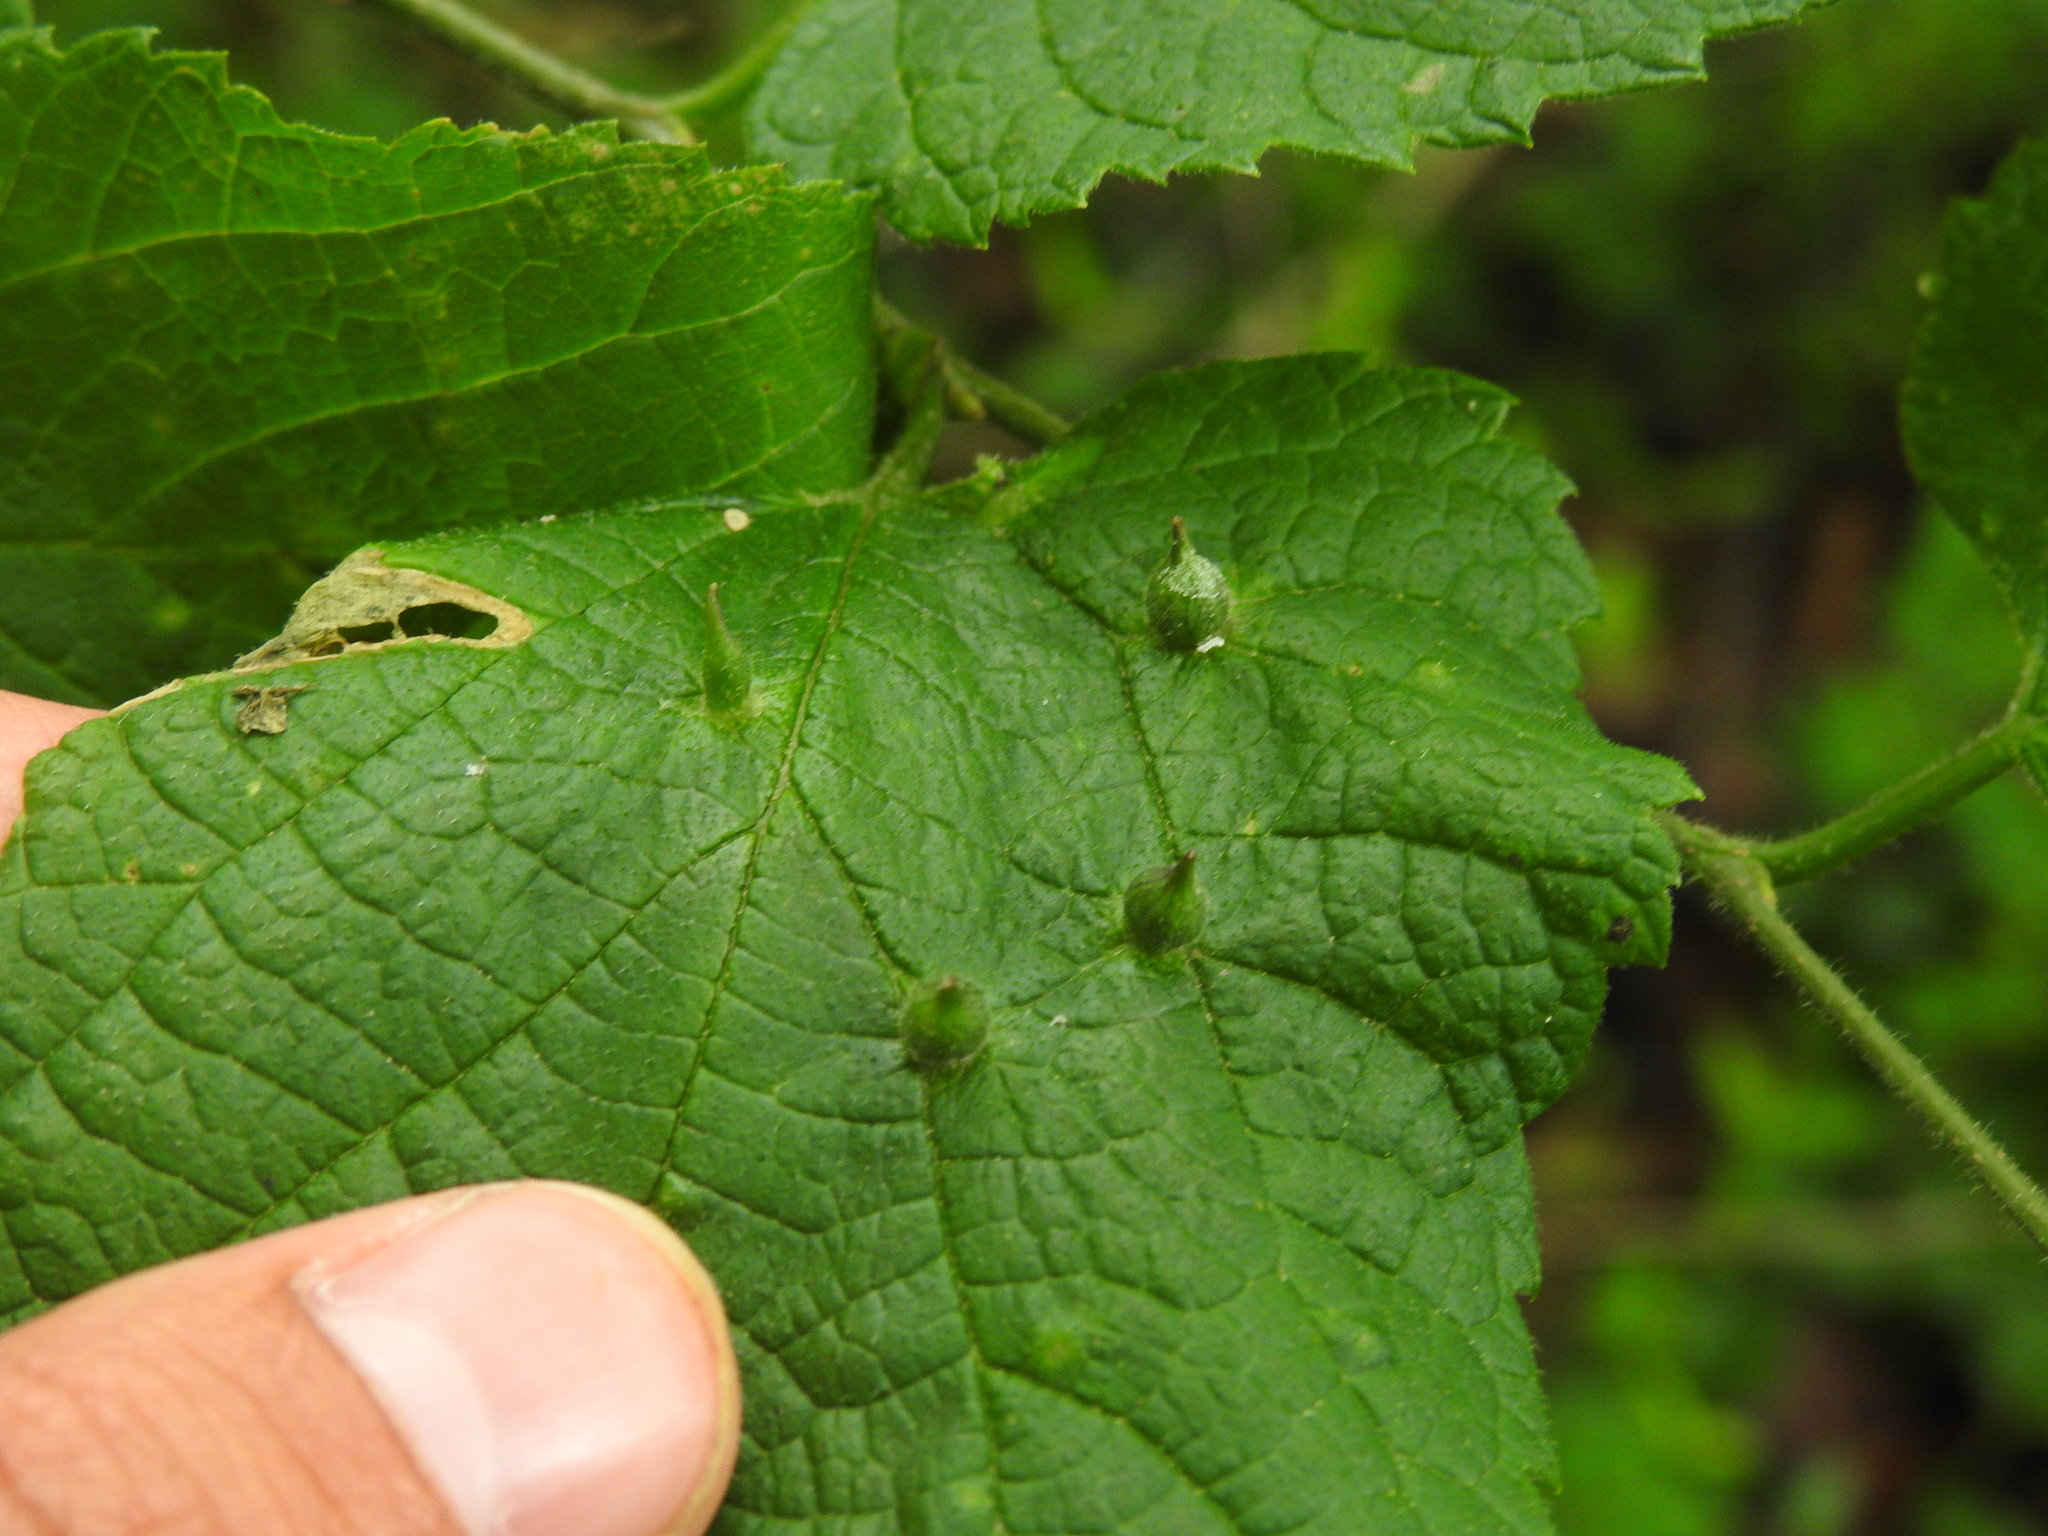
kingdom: Animalia
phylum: Arthropoda
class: Insecta
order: Diptera
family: Cecidomyiidae
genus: Celticecis
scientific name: Celticecis ovata
